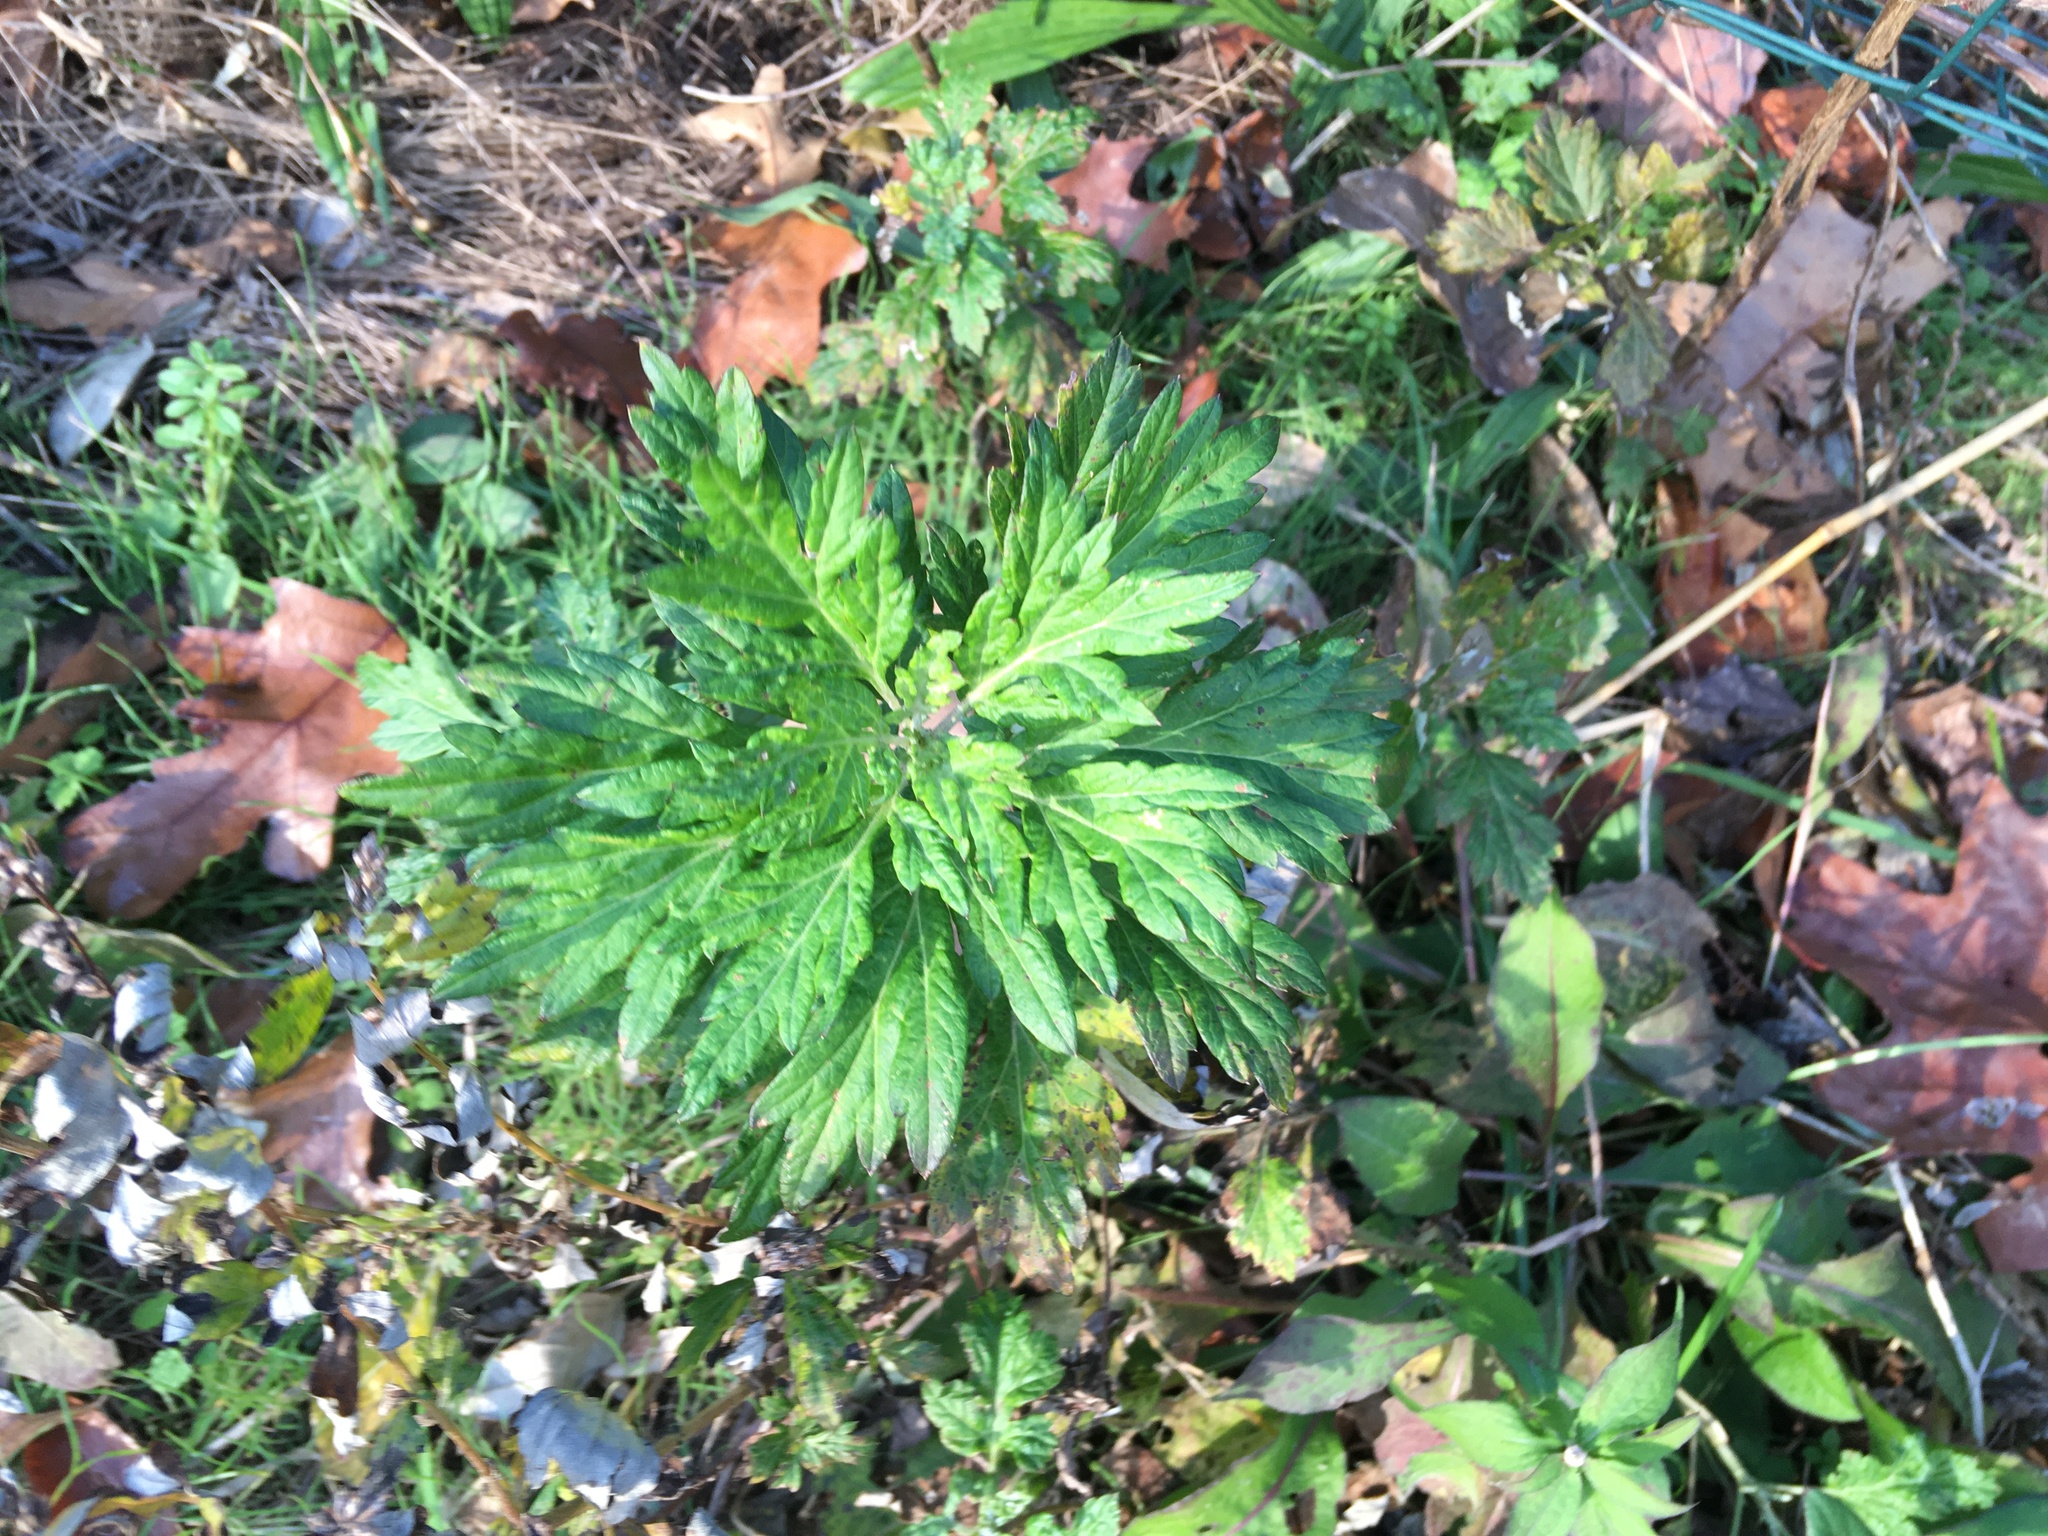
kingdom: Plantae
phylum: Tracheophyta
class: Magnoliopsida
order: Asterales
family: Asteraceae
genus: Artemisia
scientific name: Artemisia vulgaris
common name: Mugwort
